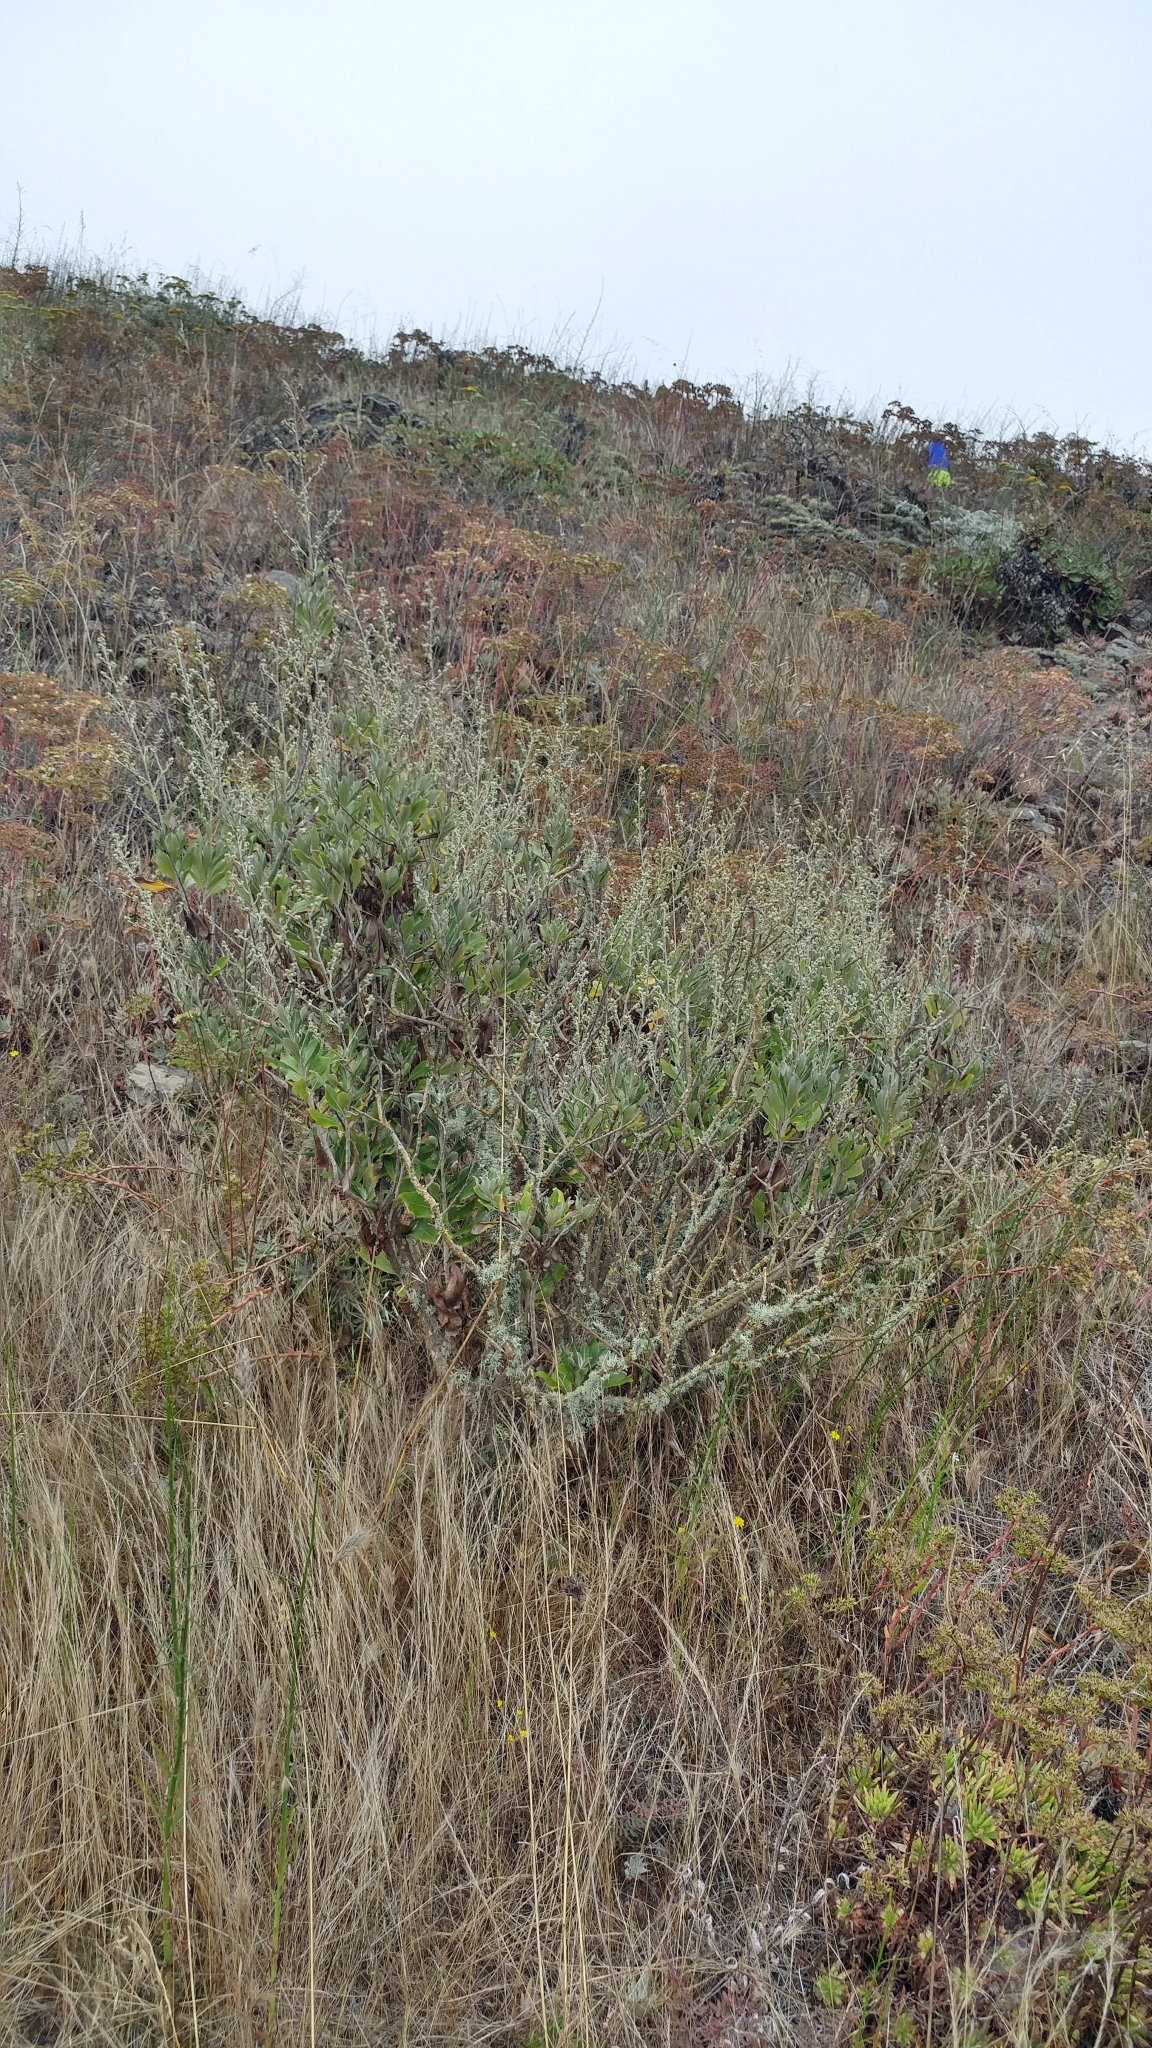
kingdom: Plantae
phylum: Tracheophyta
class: Magnoliopsida
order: Asterales
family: Asteraceae
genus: Hazardia
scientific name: Hazardia cana
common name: San clemente island bristleweed
